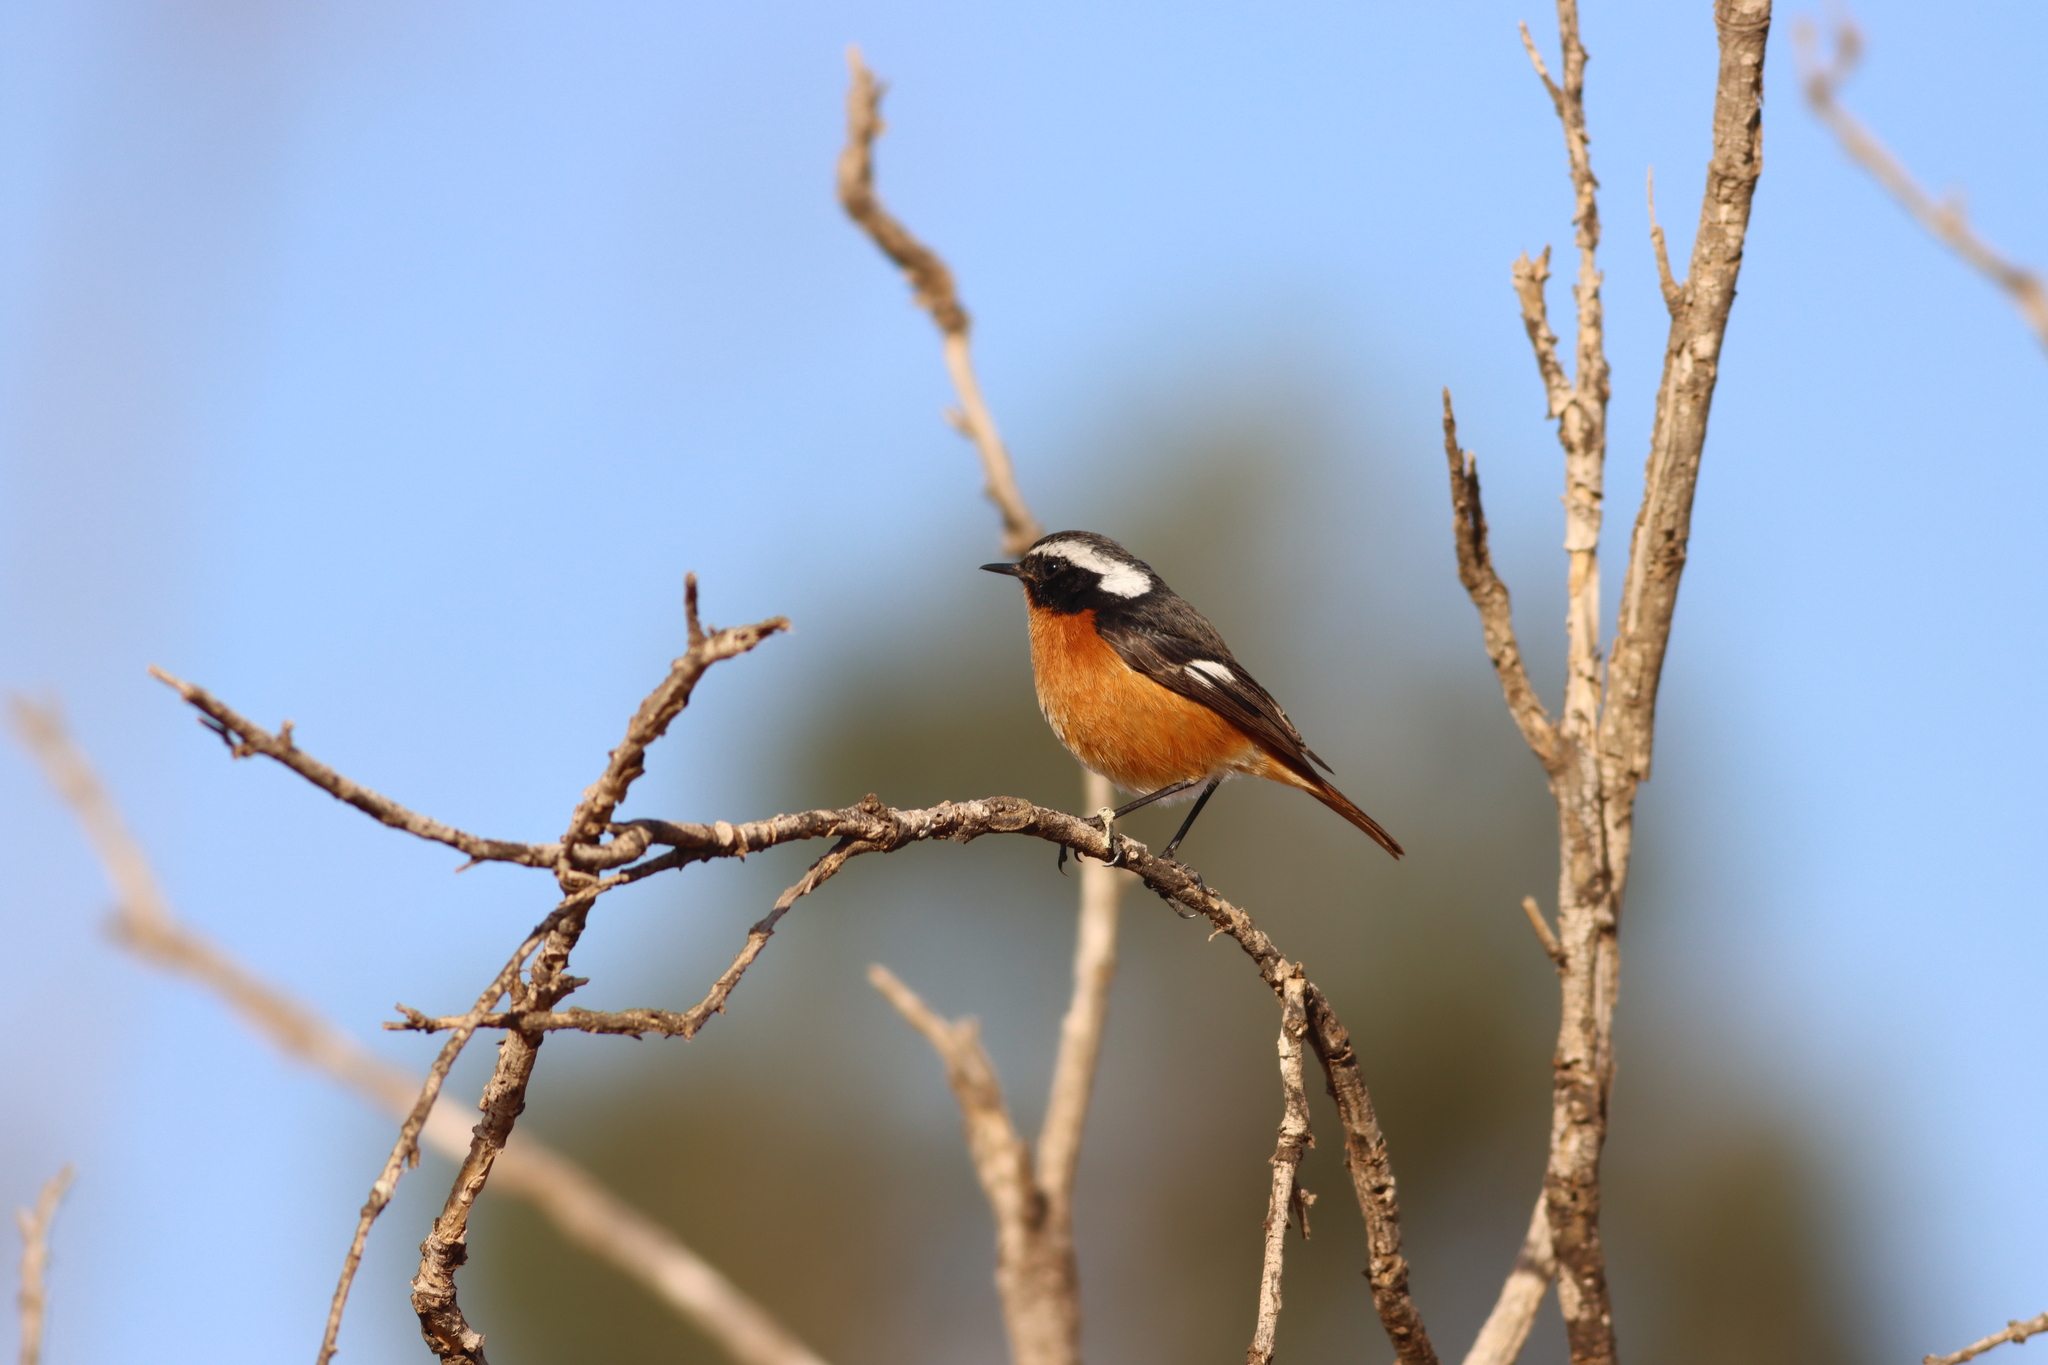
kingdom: Animalia
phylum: Chordata
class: Aves
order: Passeriformes
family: Muscicapidae
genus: Phoenicurus
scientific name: Phoenicurus moussieri
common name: Moussier's redstart
